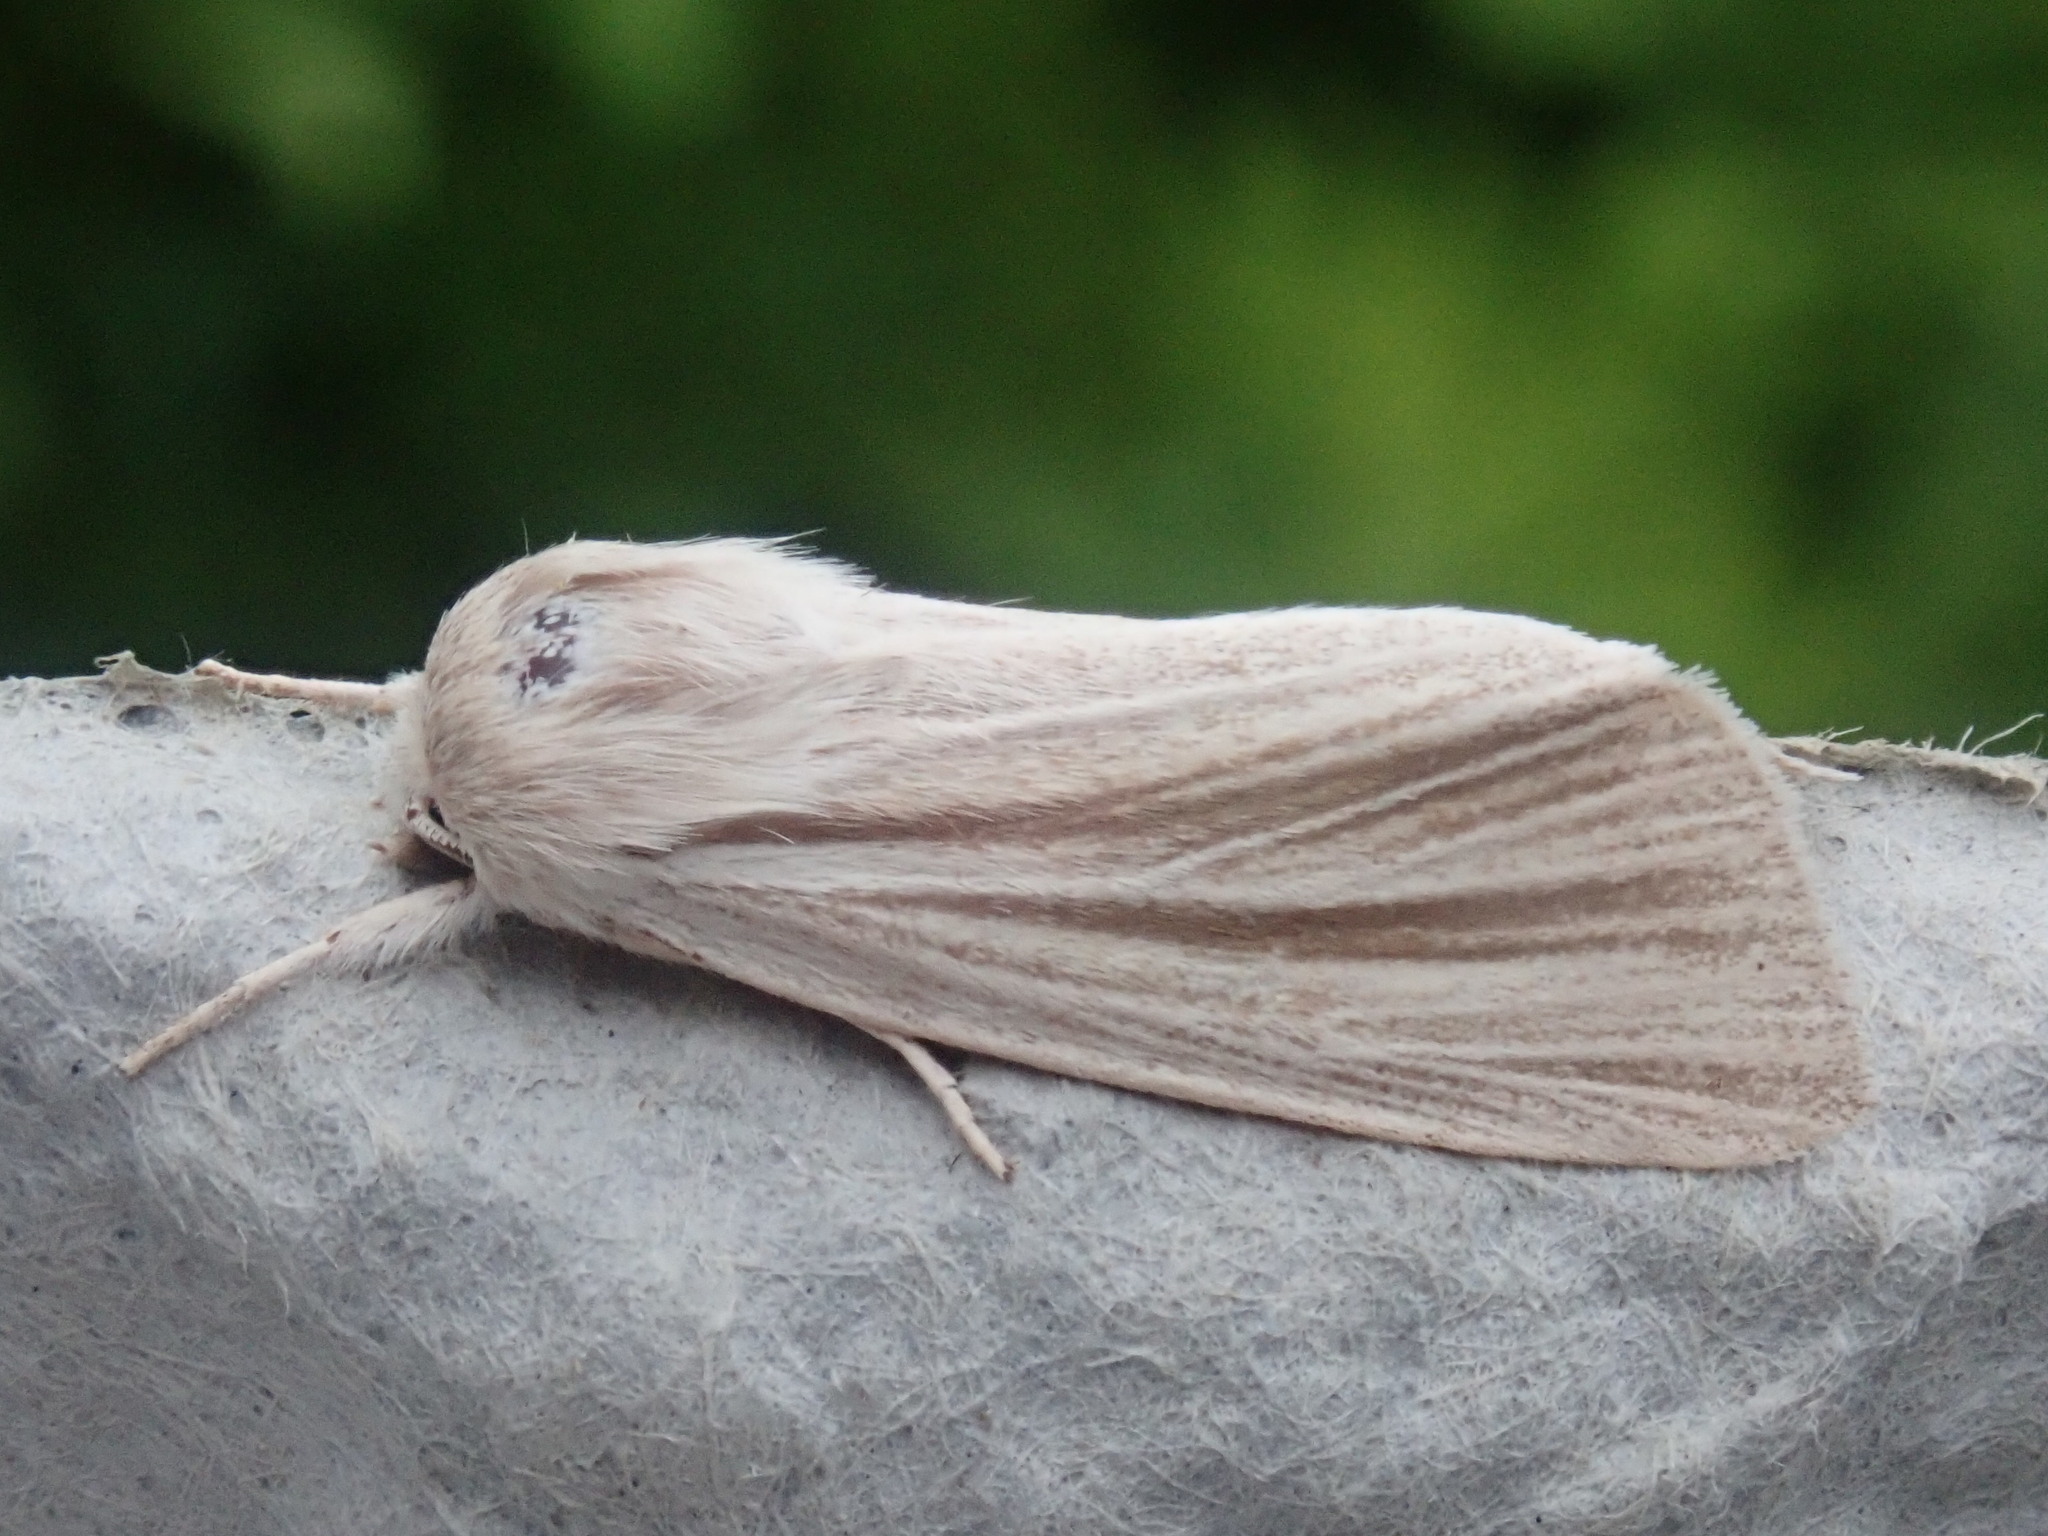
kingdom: Animalia
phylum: Arthropoda
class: Insecta
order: Lepidoptera
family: Noctuidae
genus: Acronicta
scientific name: Acronicta insularis
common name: Henry's marsh moth
